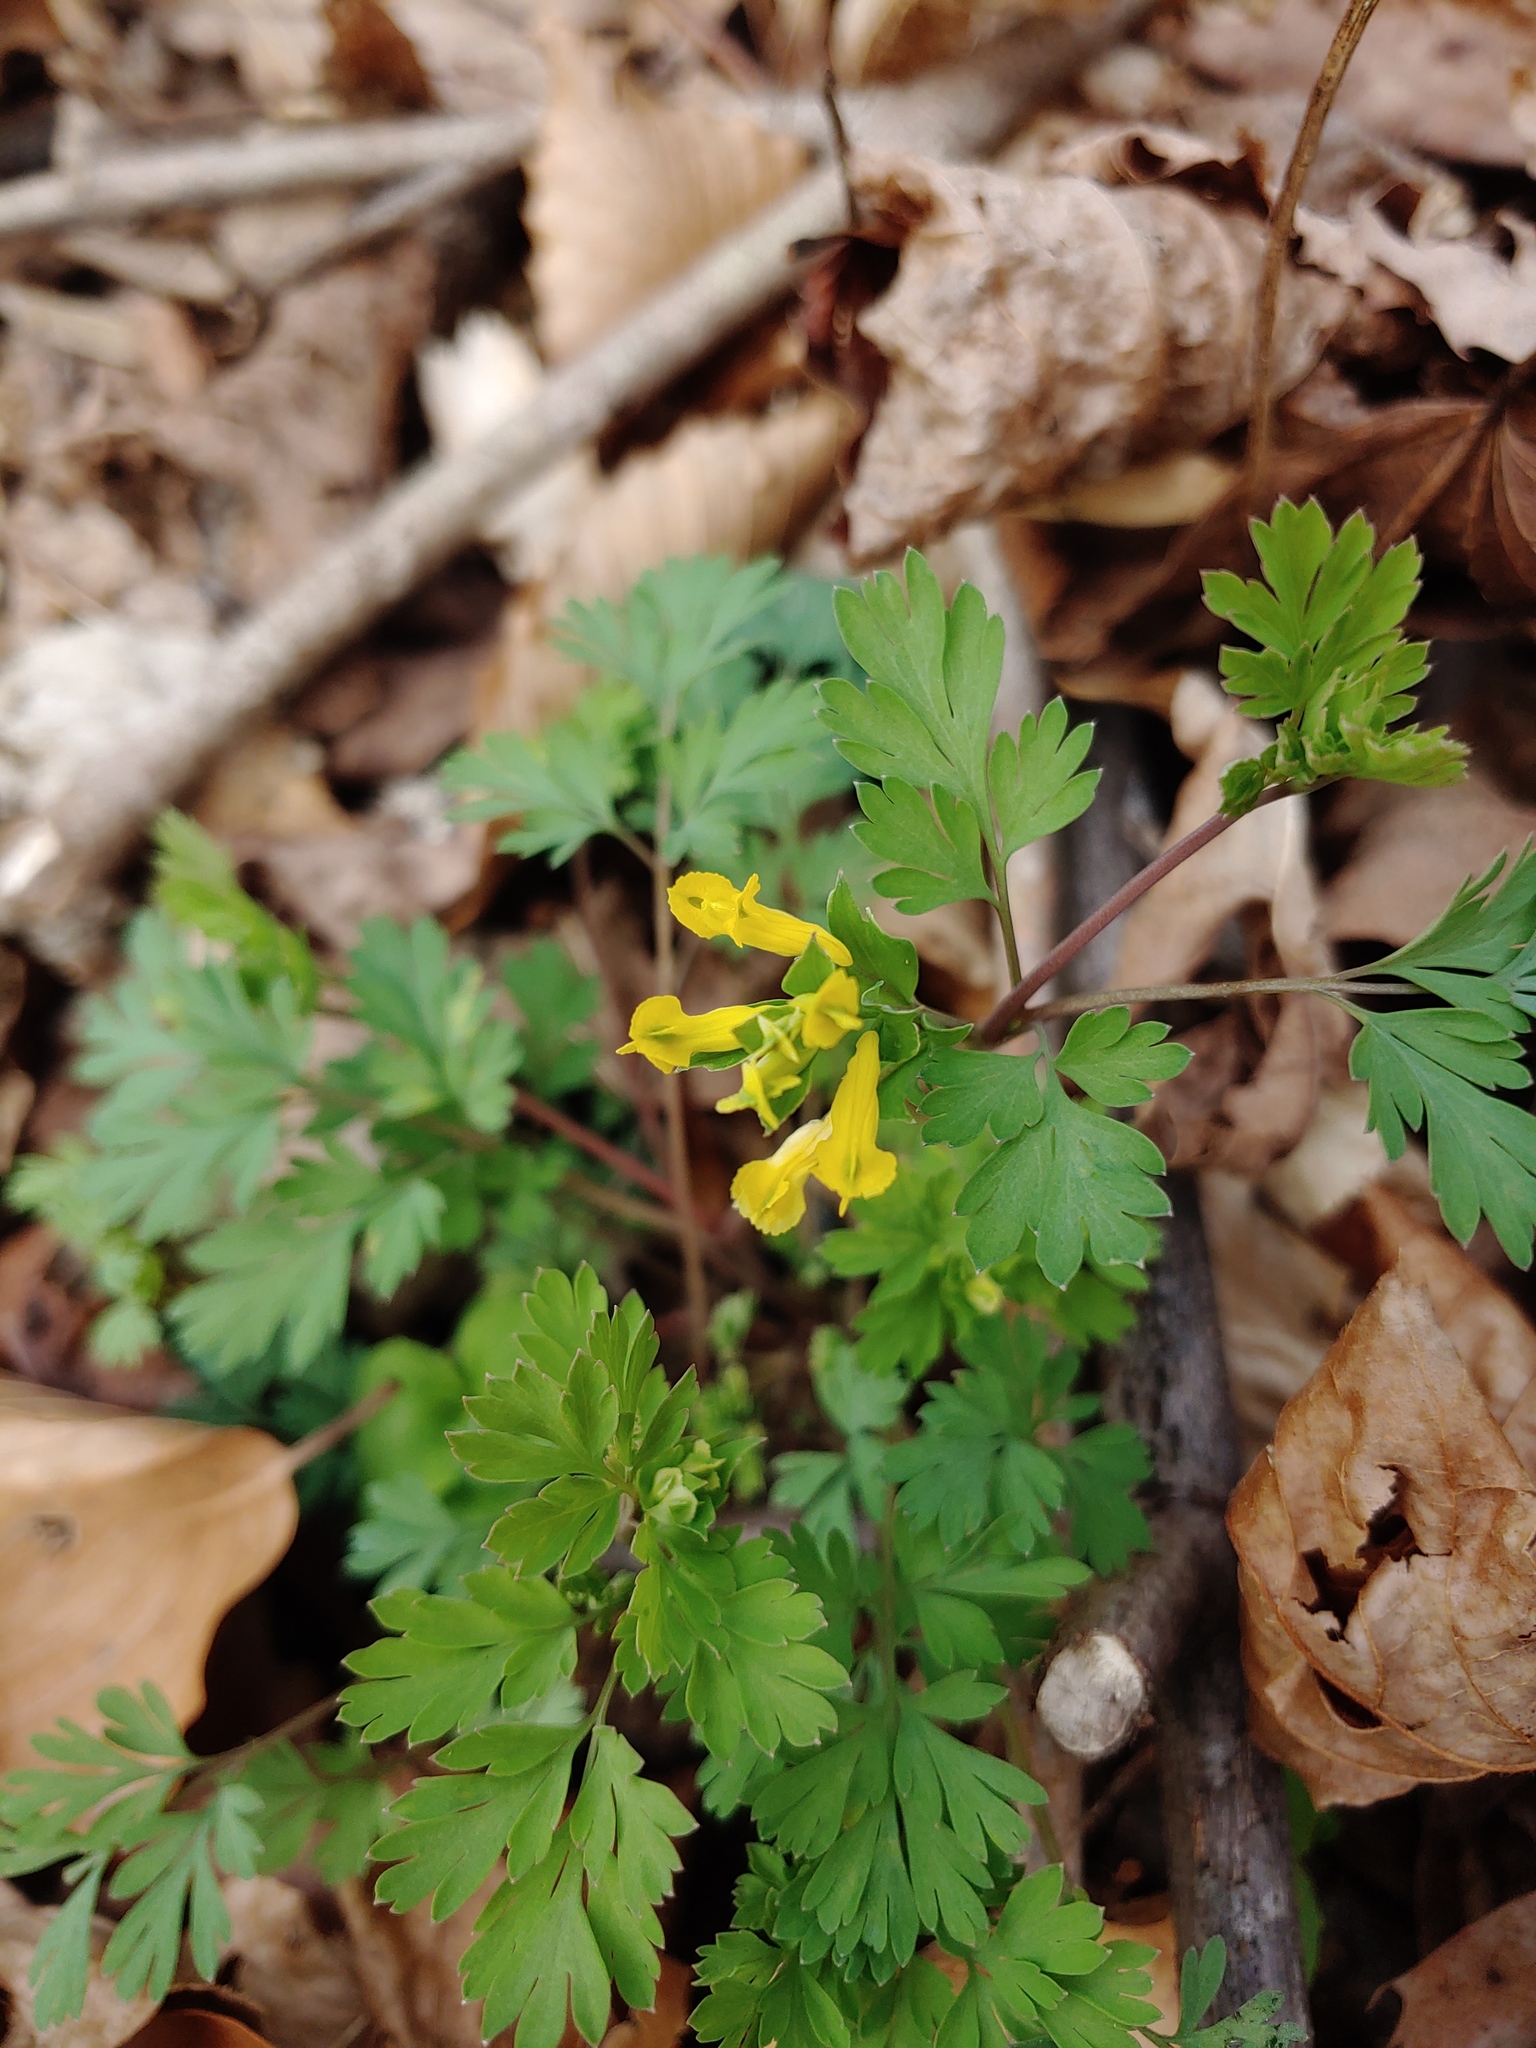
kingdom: Plantae
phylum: Tracheophyta
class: Magnoliopsida
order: Ranunculales
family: Papaveraceae
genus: Corydalis
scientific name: Corydalis flavula
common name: Yellow corydalis
